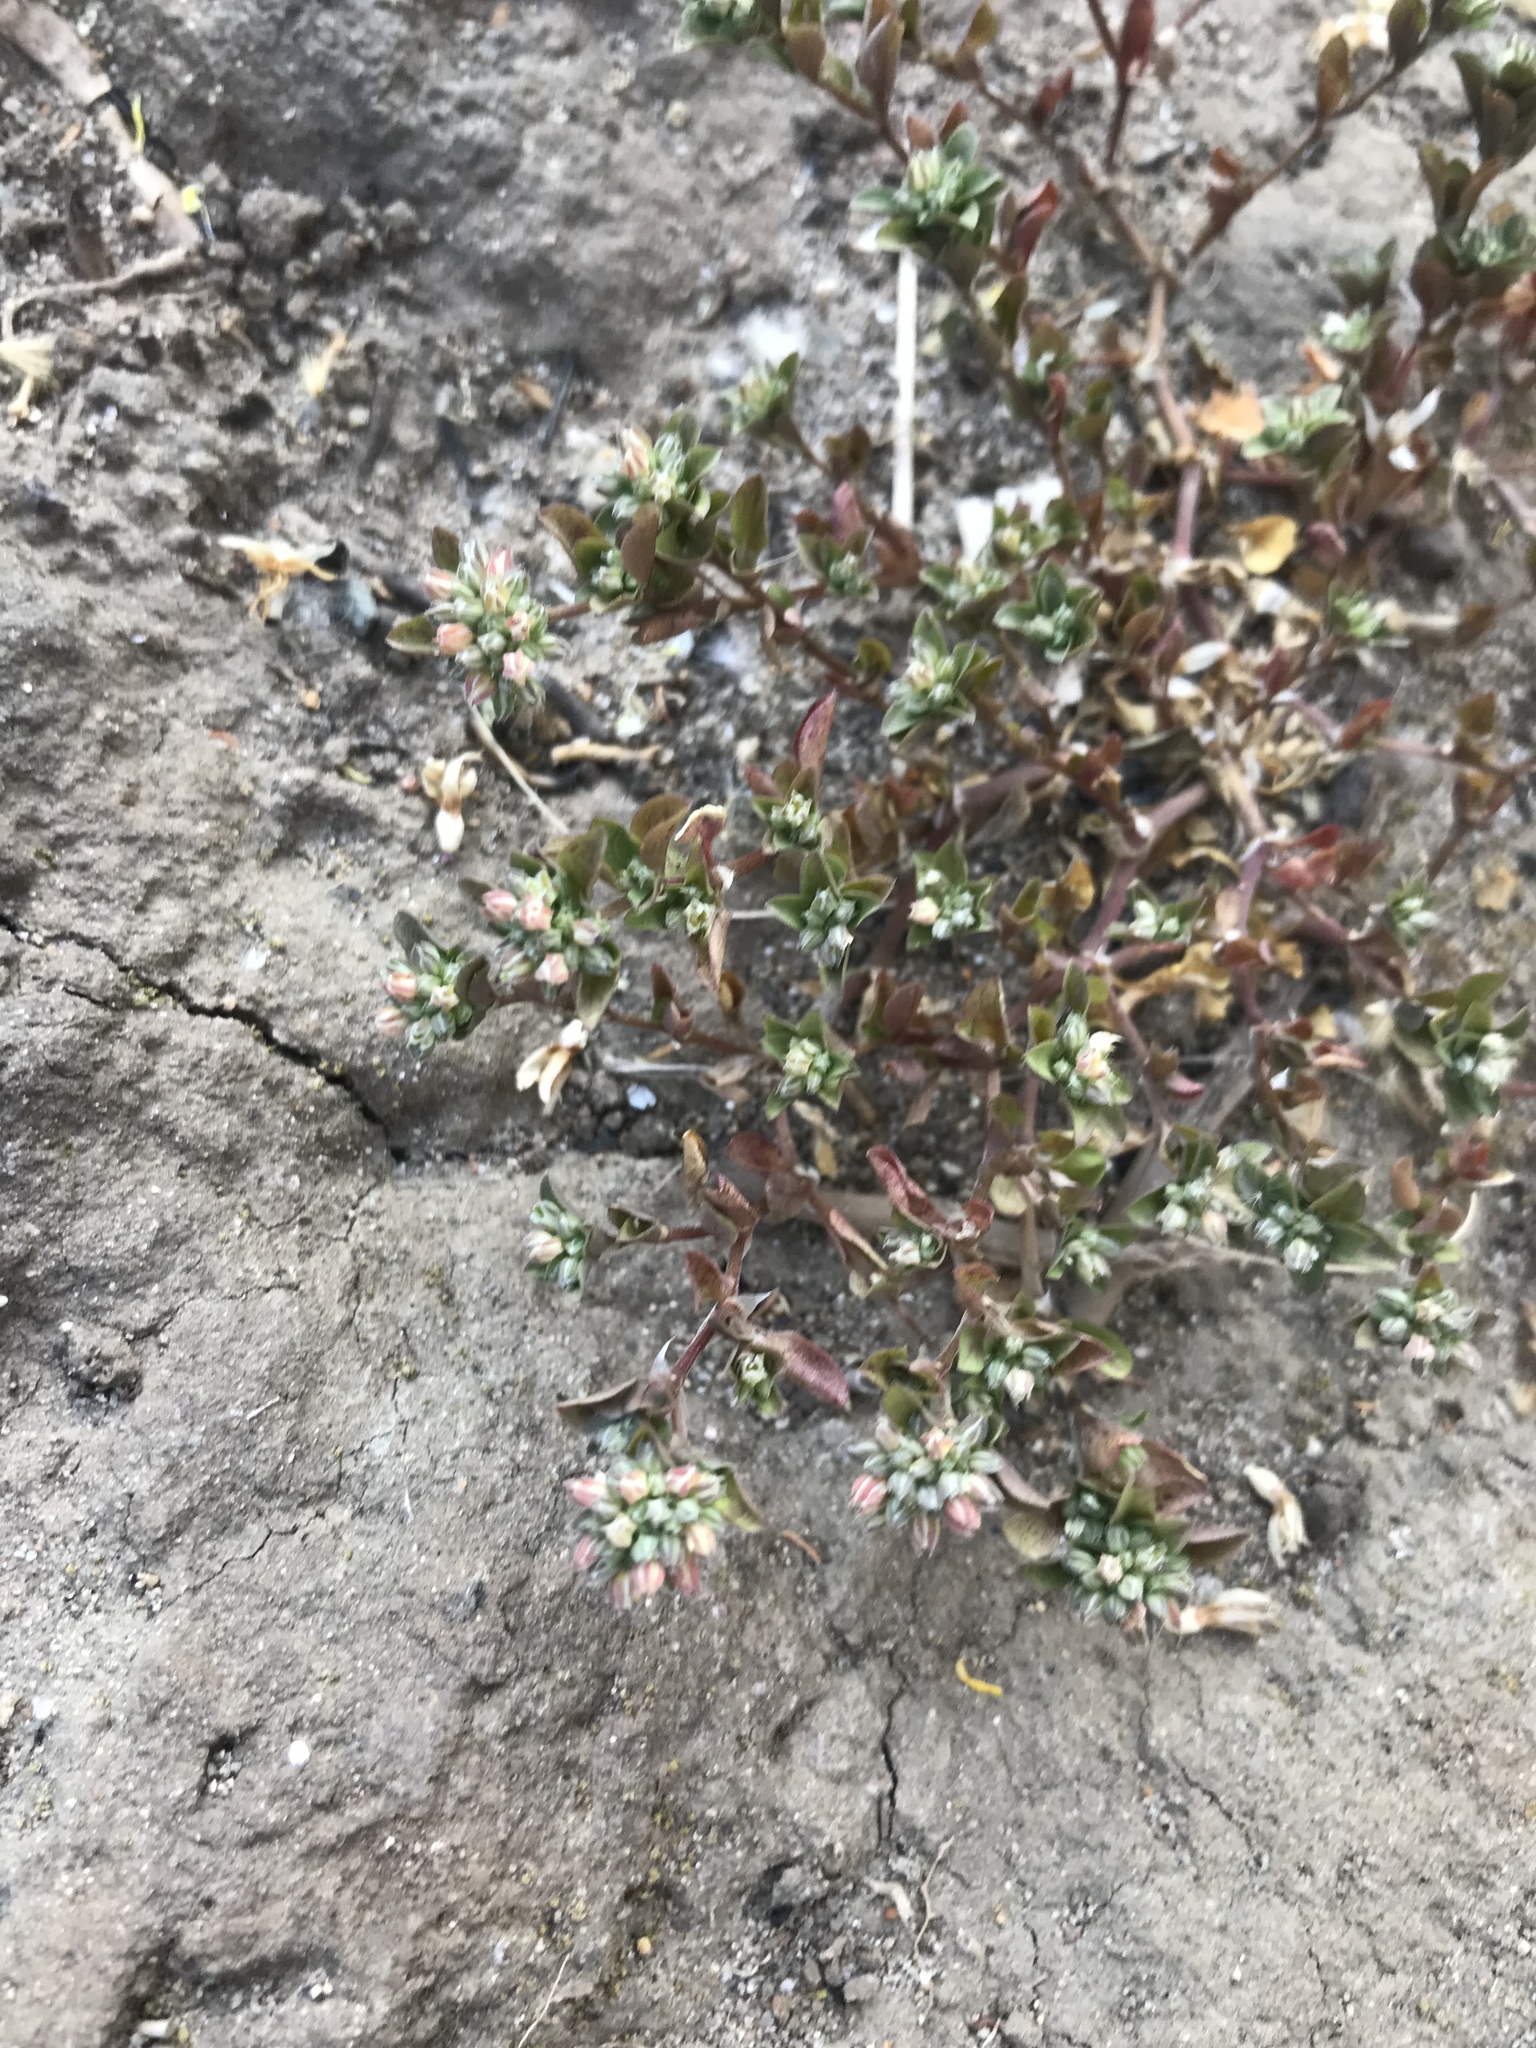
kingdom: Plantae
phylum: Tracheophyta
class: Magnoliopsida
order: Caryophyllales
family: Caryophyllaceae
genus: Polycarpon
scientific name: Polycarpon tetraphyllum
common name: Four-leaved all-seed
